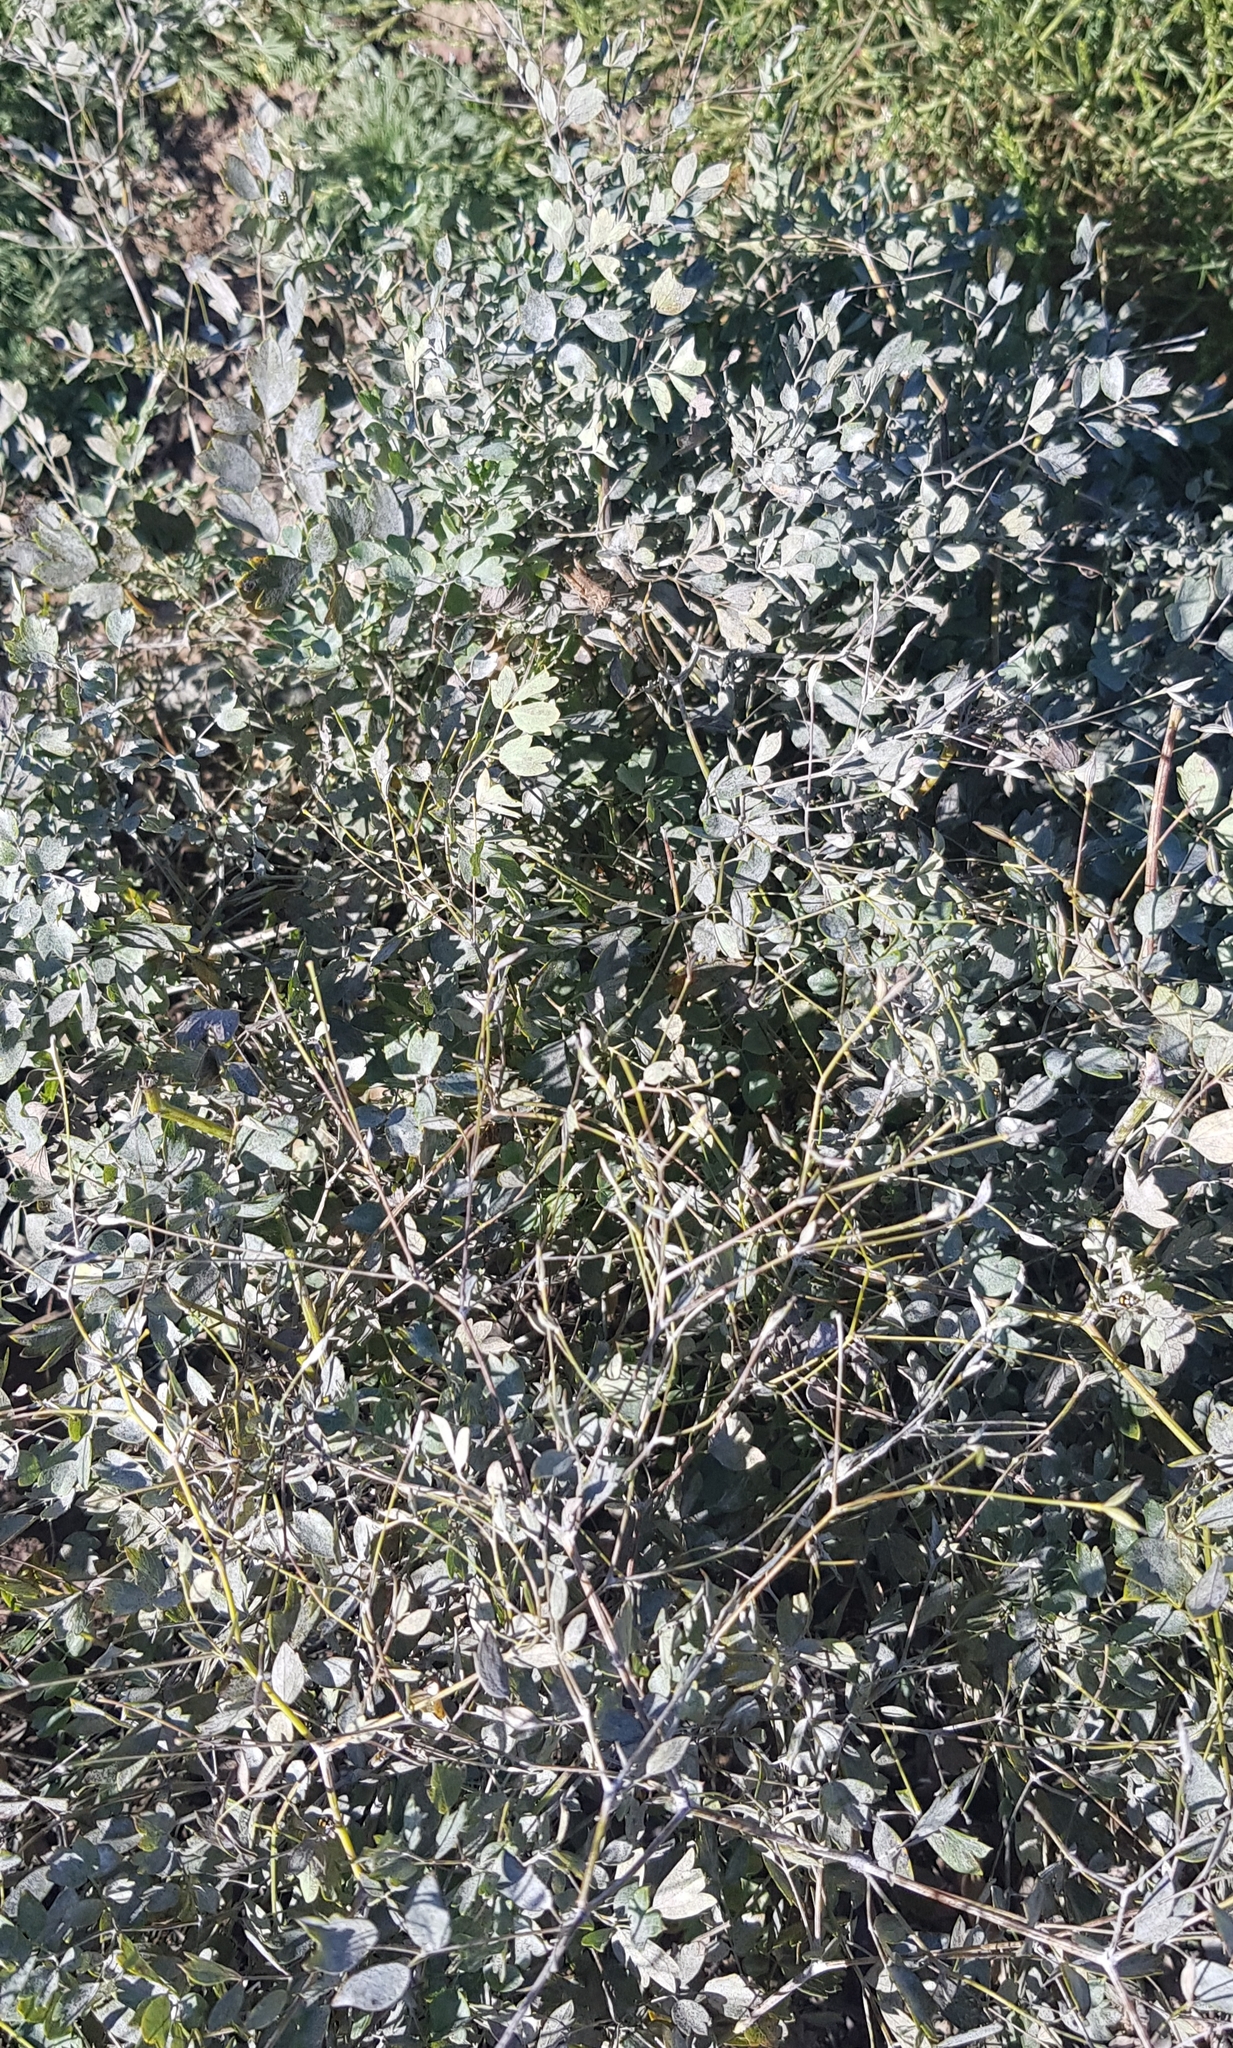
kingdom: Plantae
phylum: Tracheophyta
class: Magnoliopsida
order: Ranunculales
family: Ranunculaceae
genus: Thalictrum
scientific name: Thalictrum minus
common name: Lesser meadow-rue
